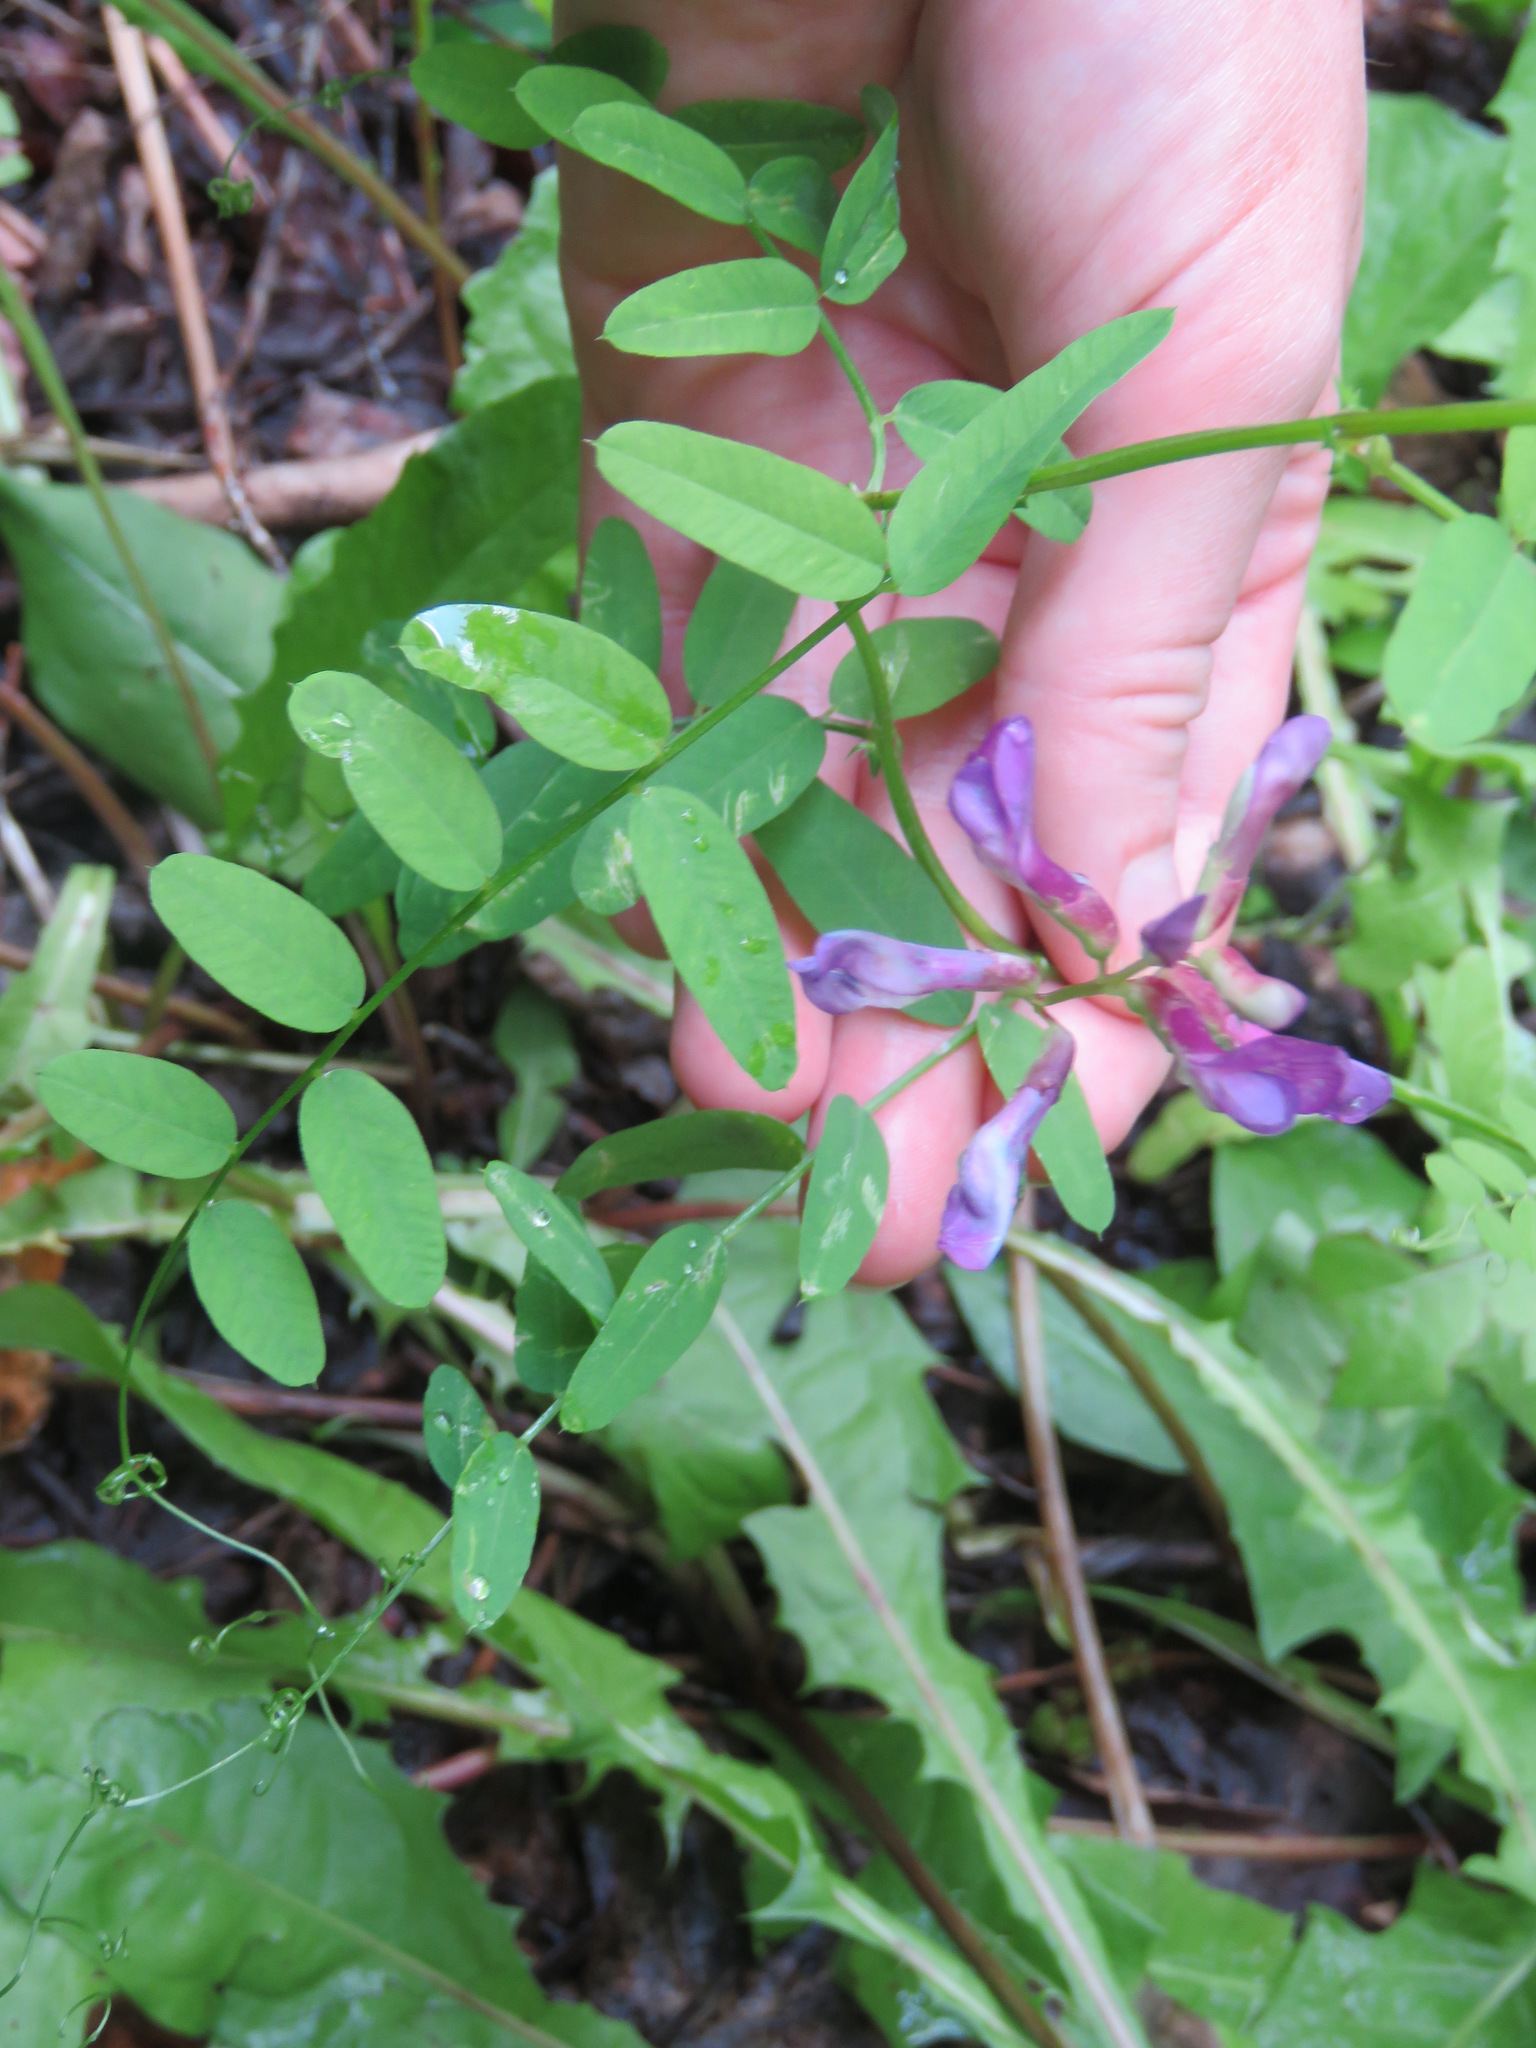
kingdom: Plantae
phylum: Tracheophyta
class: Magnoliopsida
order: Fabales
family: Fabaceae
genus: Vicia
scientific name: Vicia americana
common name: American vetch
